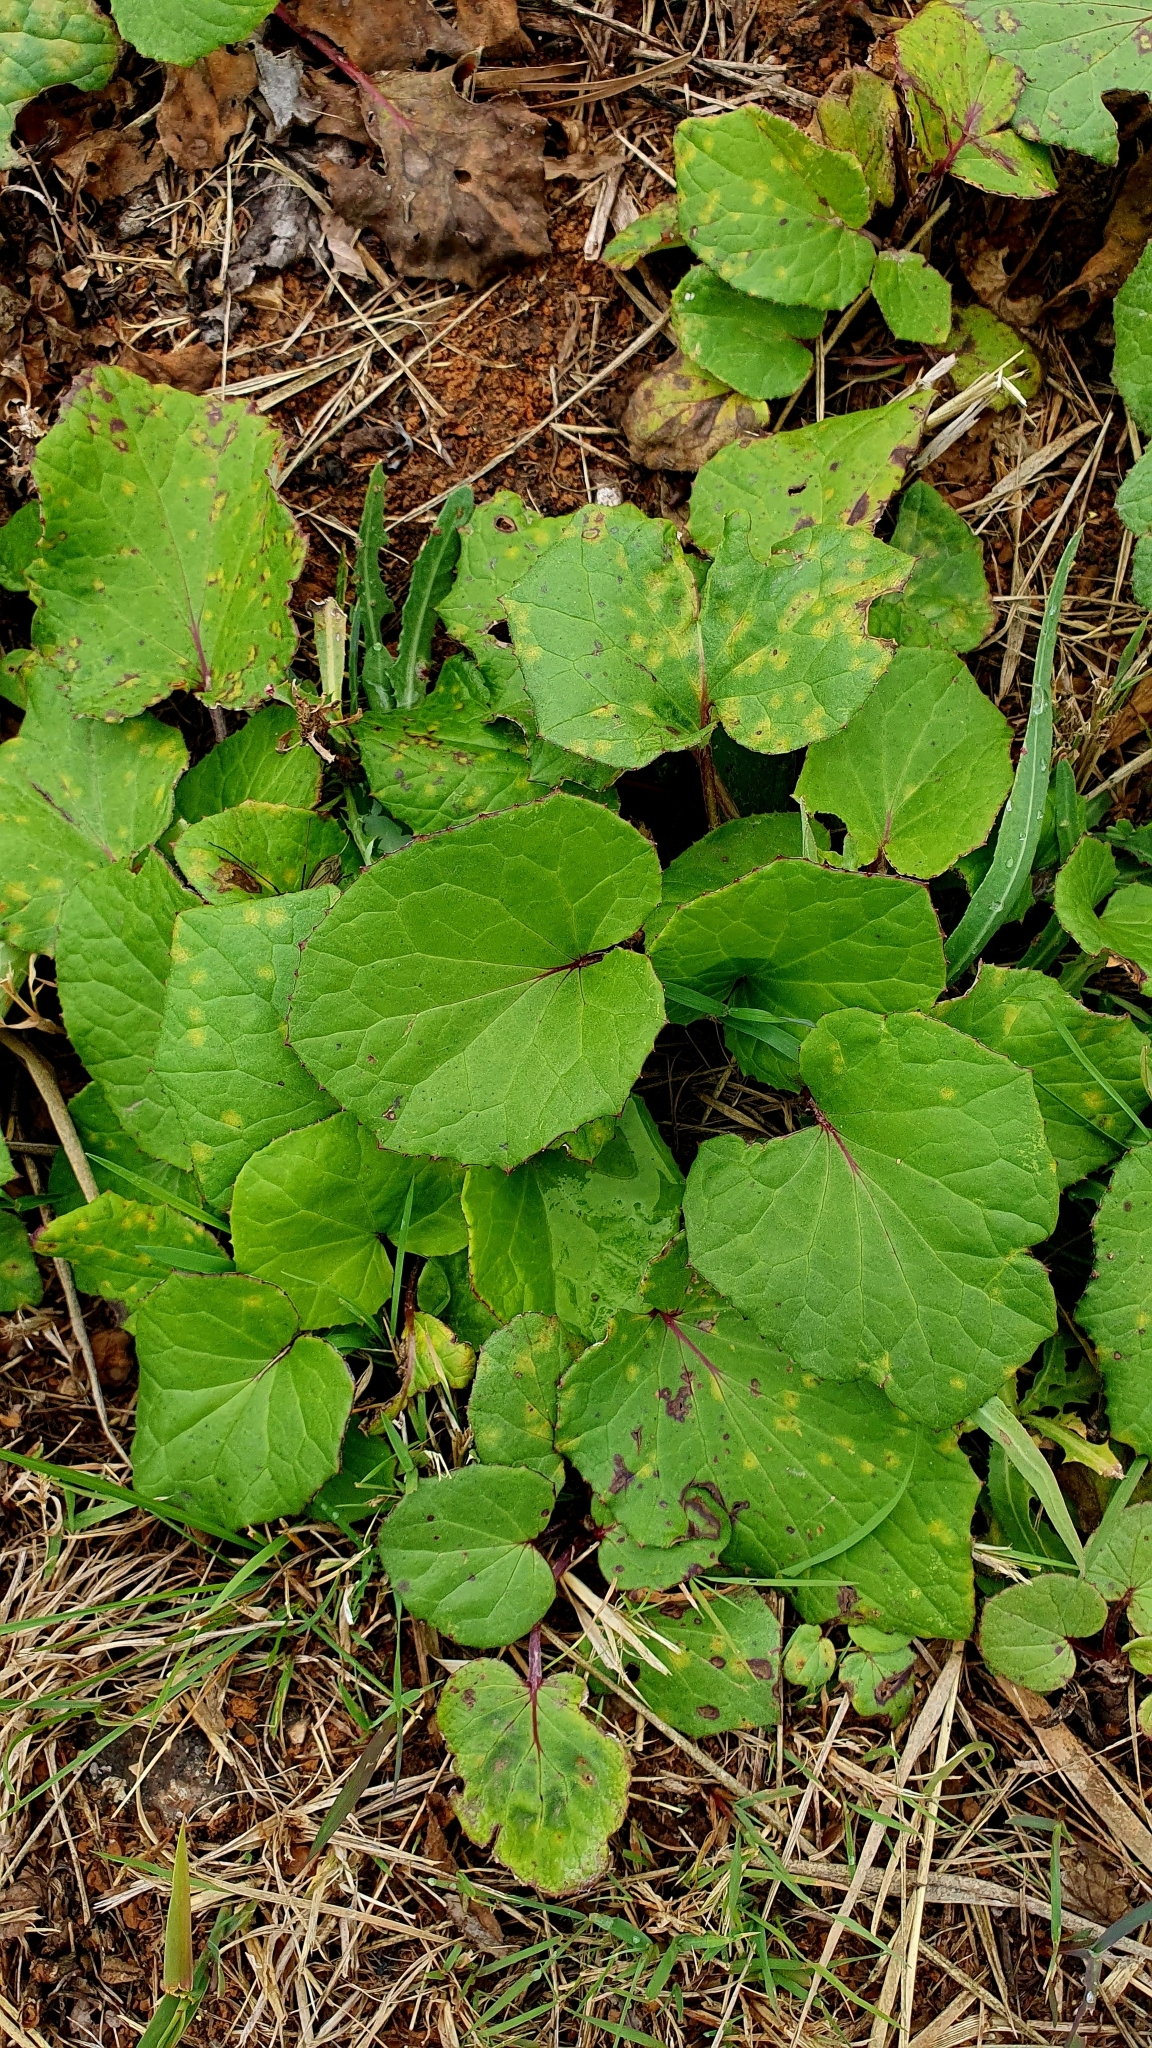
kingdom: Plantae
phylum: Tracheophyta
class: Magnoliopsida
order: Asterales
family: Asteraceae
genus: Tussilago
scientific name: Tussilago farfara
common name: Coltsfoot
